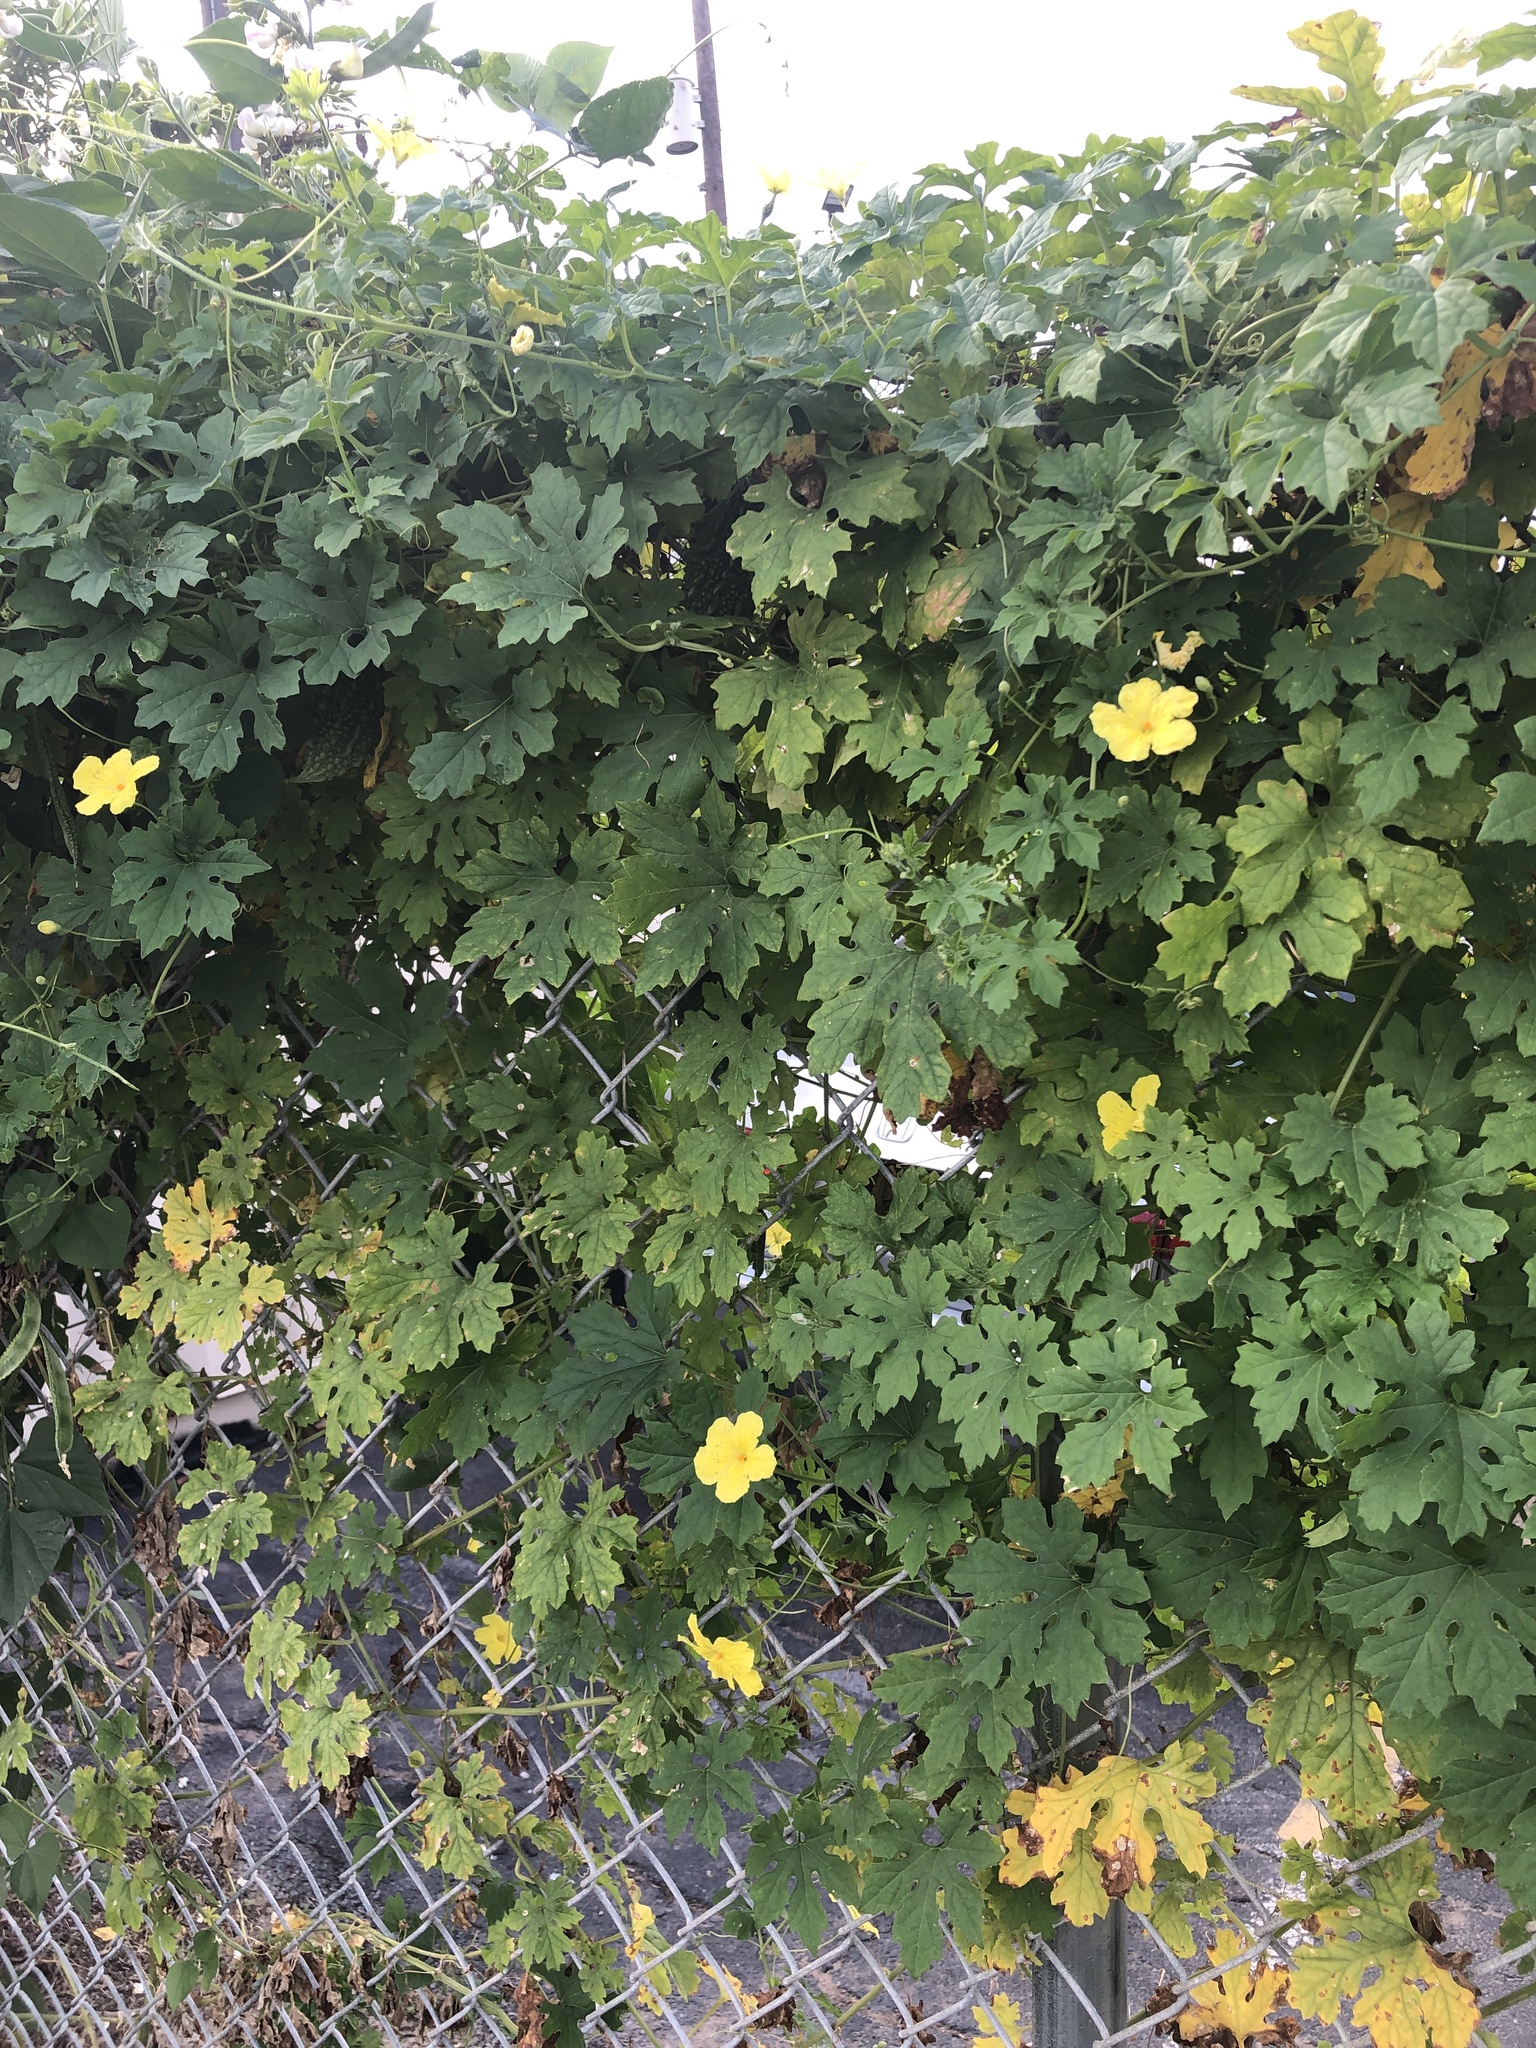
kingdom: Plantae
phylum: Tracheophyta
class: Magnoliopsida
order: Cucurbitales
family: Cucurbitaceae
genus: Momordica
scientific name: Momordica charantia
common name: Balsampear
